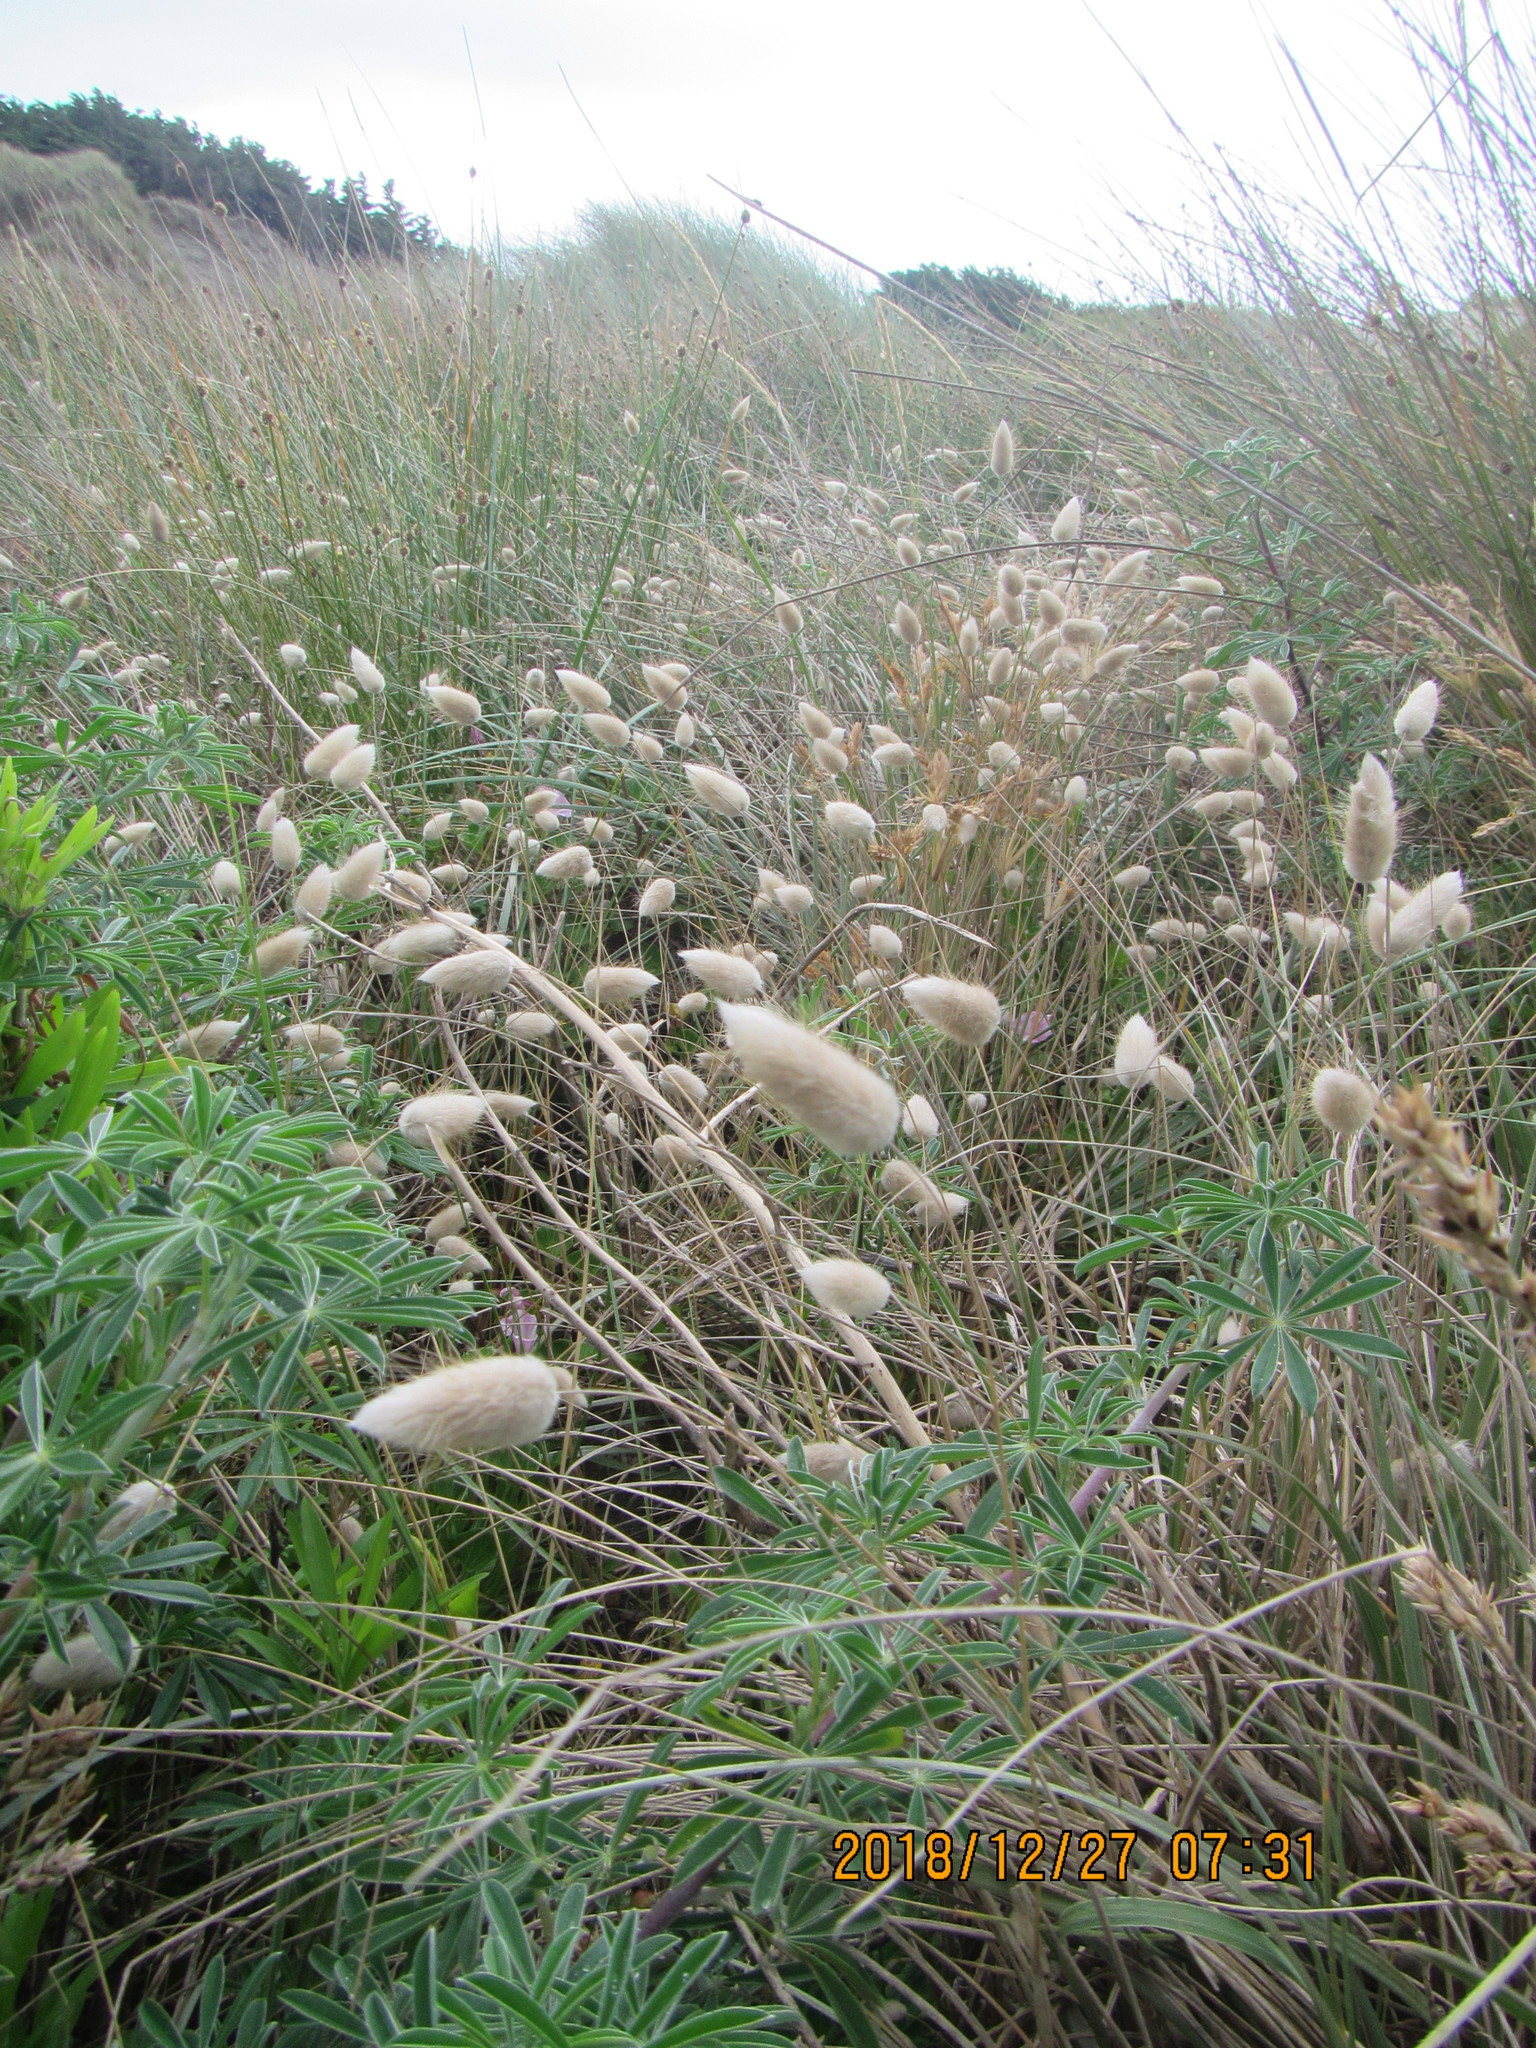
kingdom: Plantae
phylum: Tracheophyta
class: Liliopsida
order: Poales
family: Poaceae
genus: Lagurus
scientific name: Lagurus ovatus
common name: Hare's-tail
